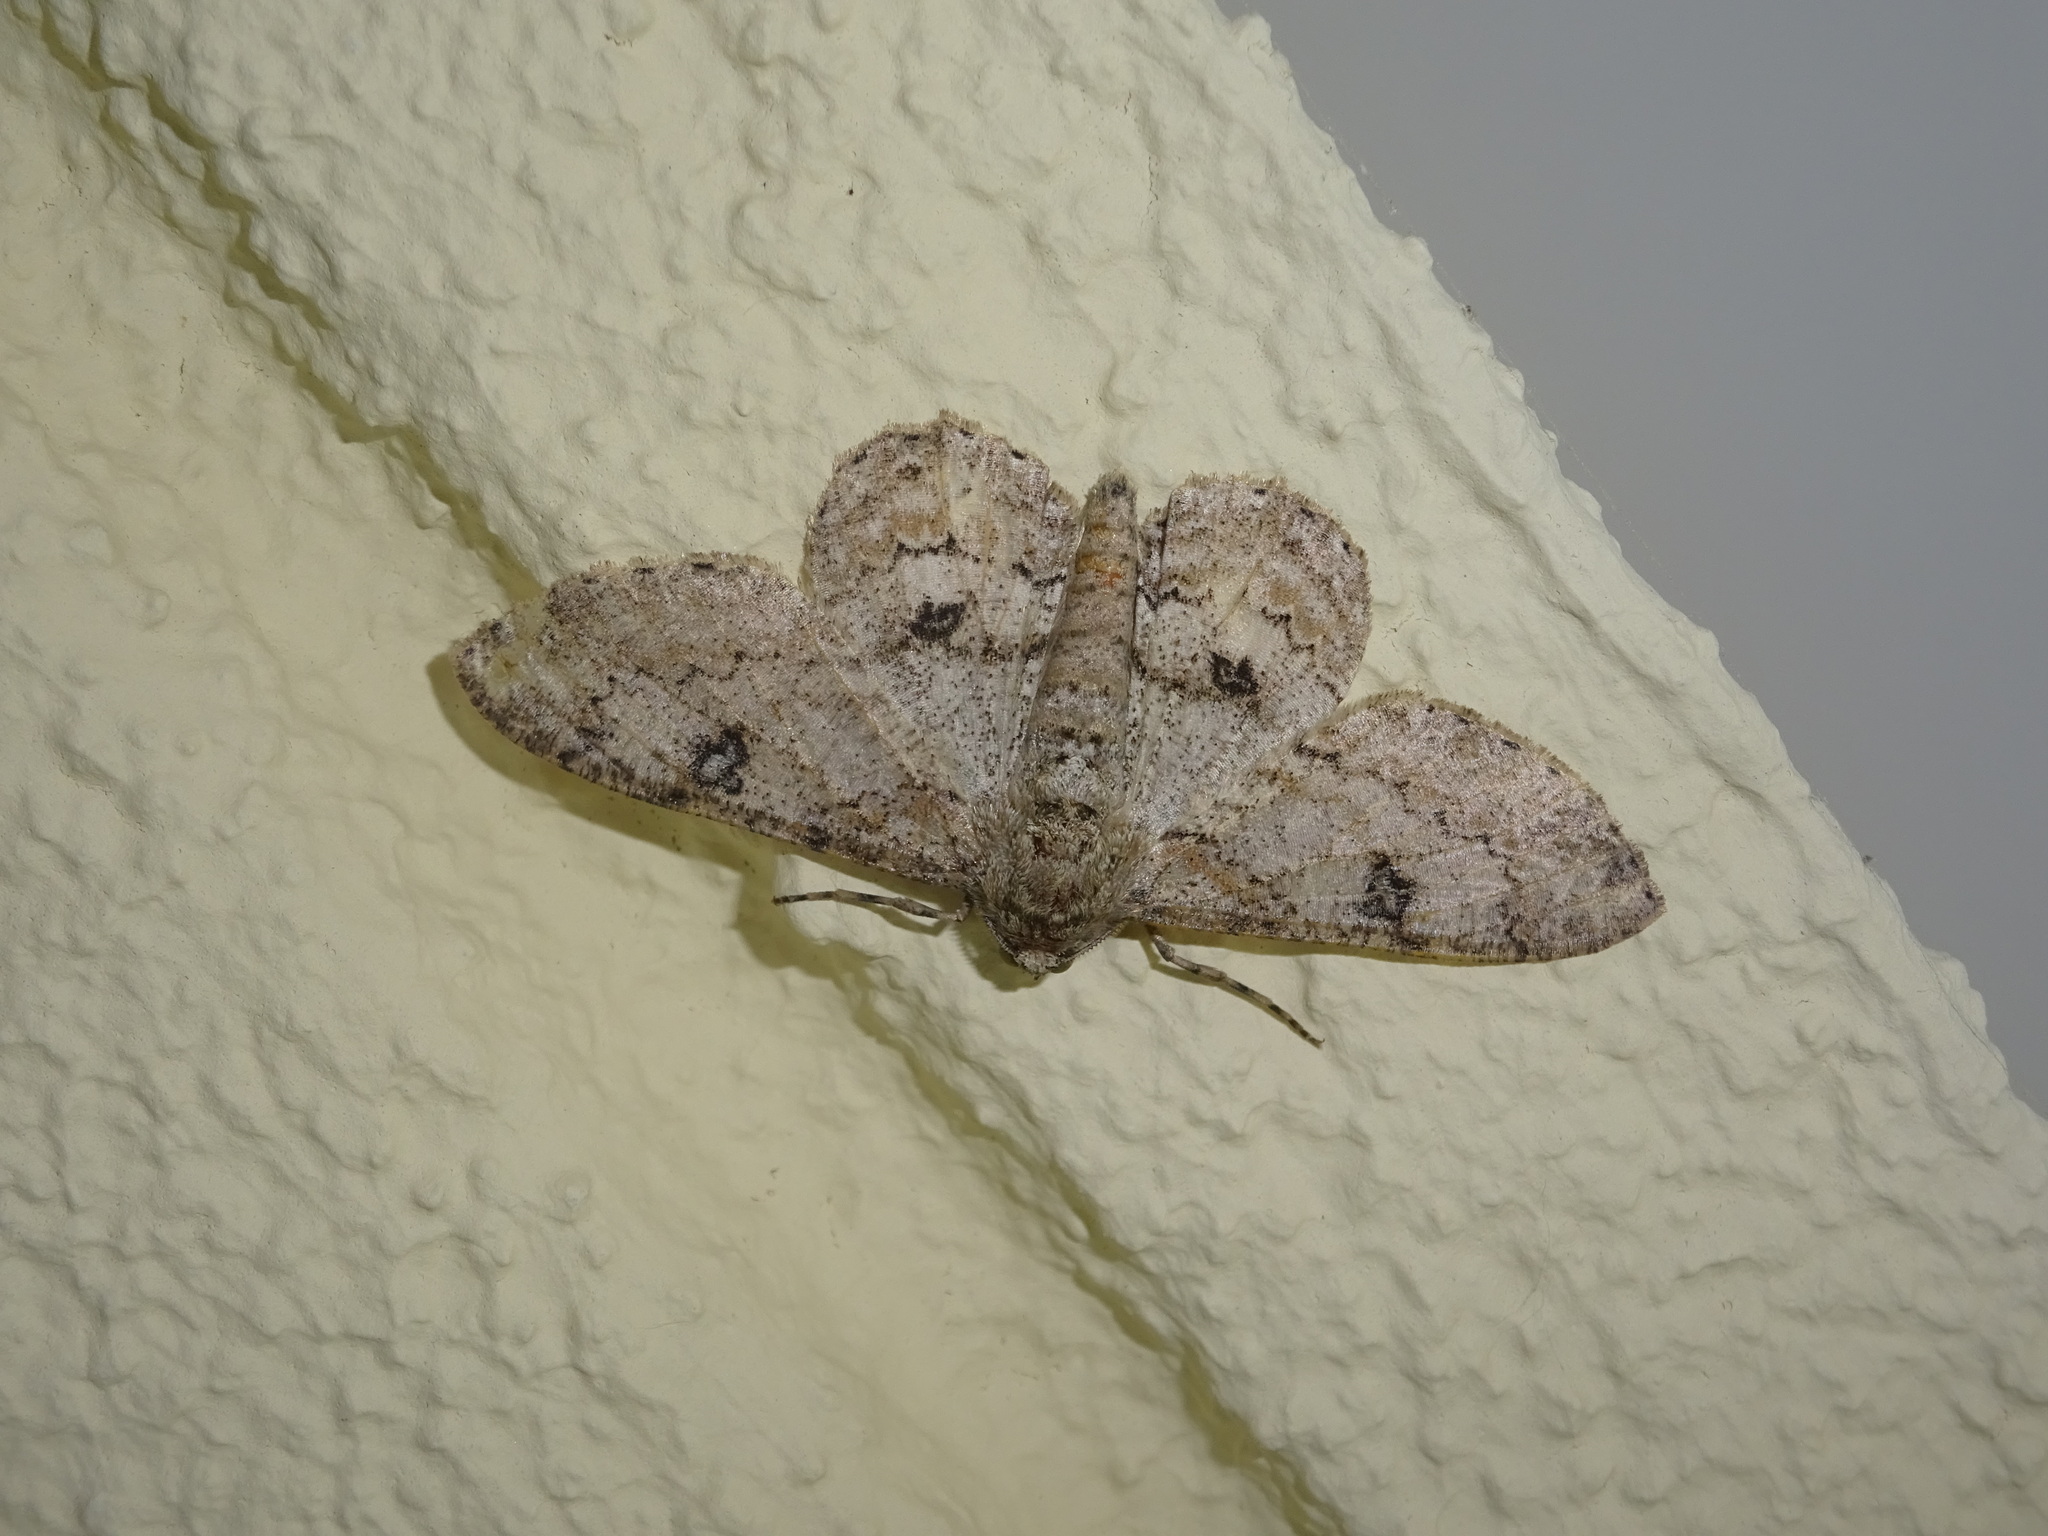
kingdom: Animalia
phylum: Arthropoda
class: Insecta
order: Lepidoptera
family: Geometridae
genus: Ascotis
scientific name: Ascotis selenaria
